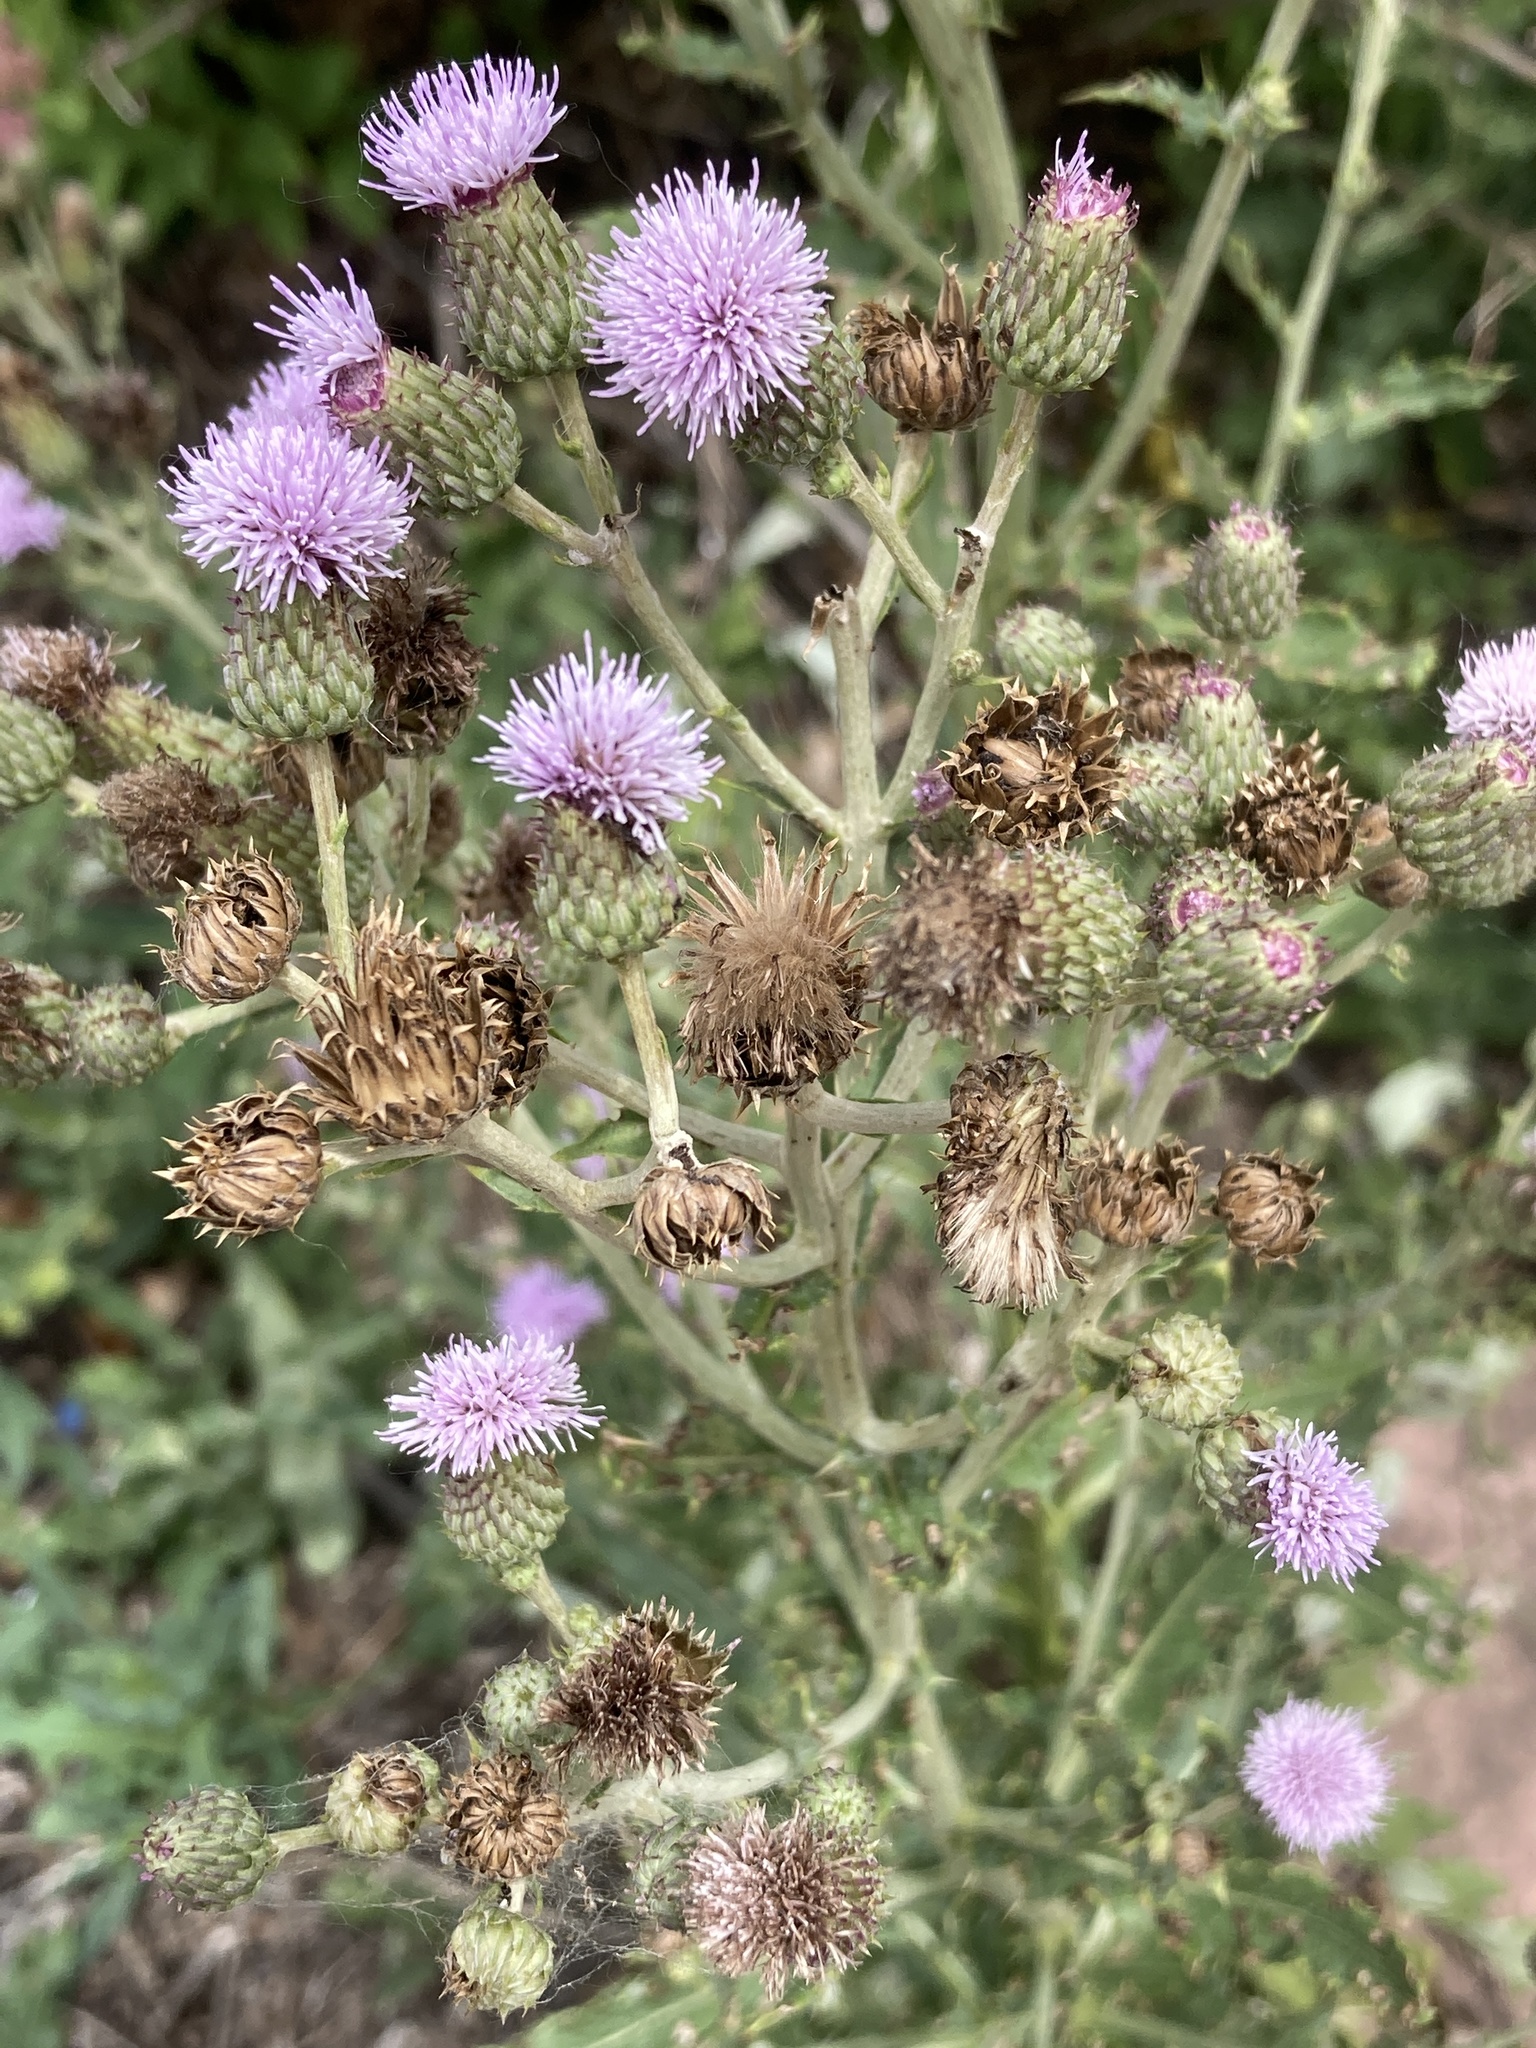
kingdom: Plantae
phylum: Tracheophyta
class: Magnoliopsida
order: Asterales
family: Asteraceae
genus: Cirsium
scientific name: Cirsium arvense
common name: Creeping thistle
